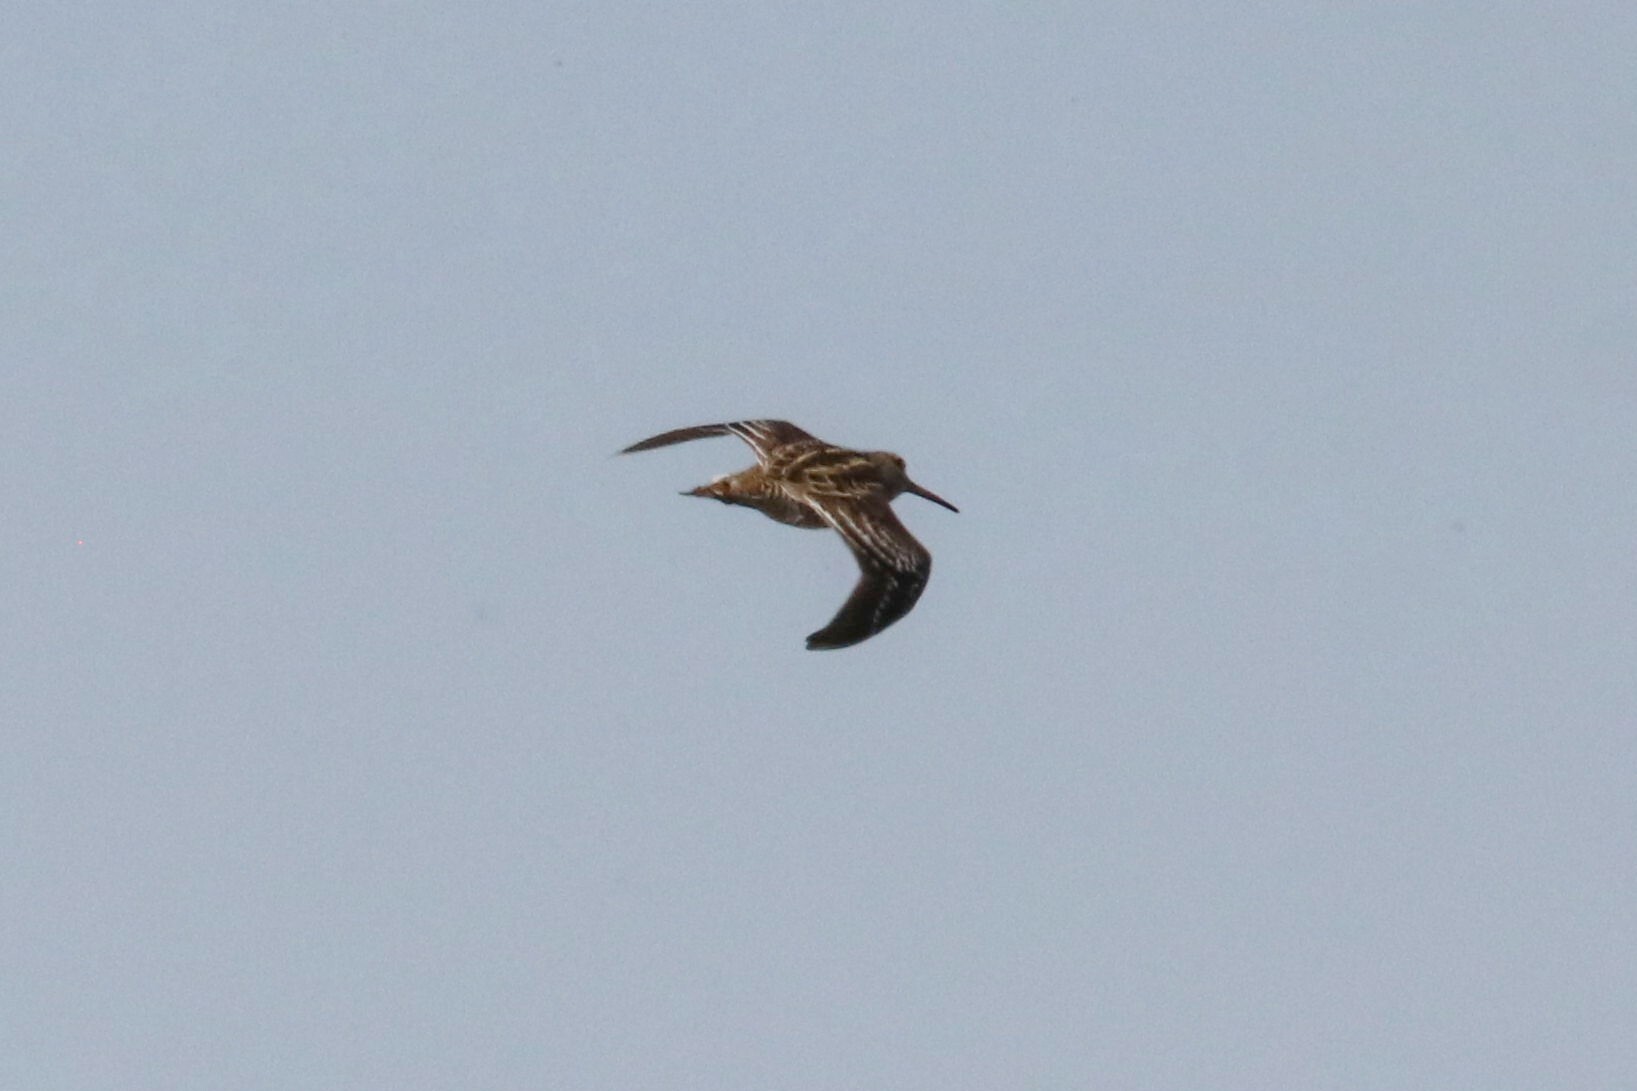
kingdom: Animalia
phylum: Chordata
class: Aves
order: Charadriiformes
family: Scolopacidae
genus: Gallinago
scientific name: Gallinago media
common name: Great snipe
